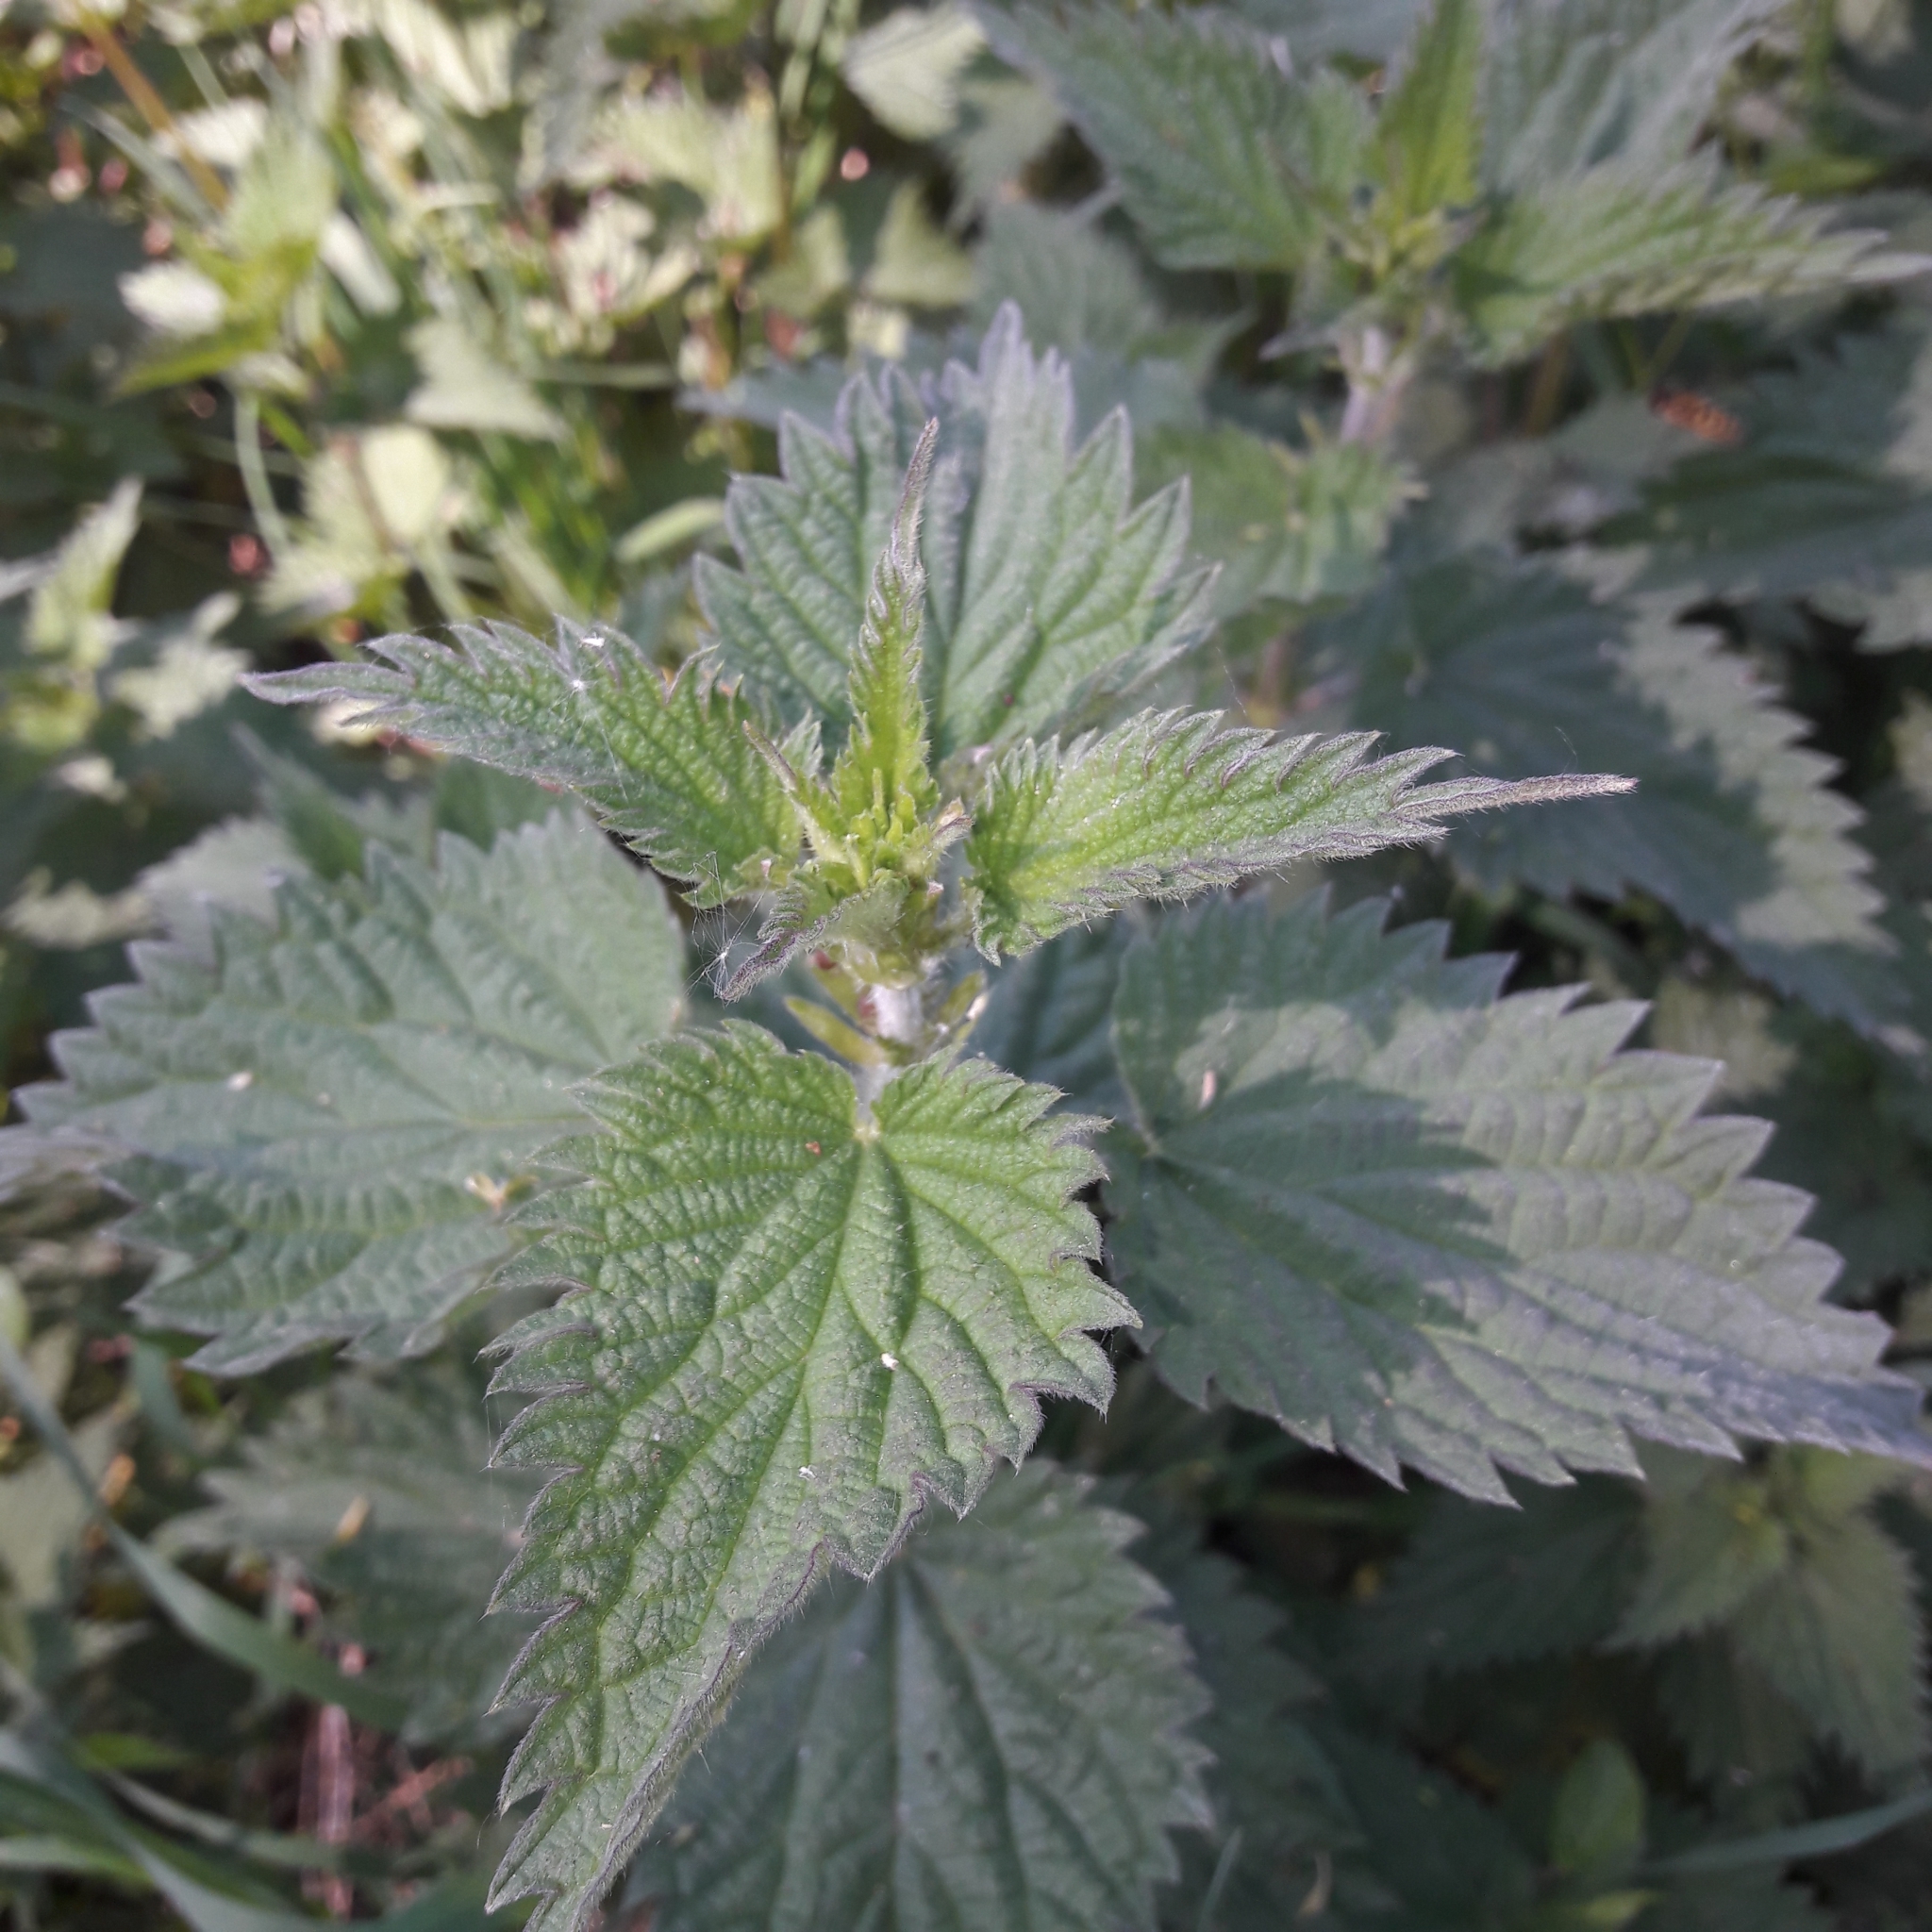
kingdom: Plantae
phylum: Tracheophyta
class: Magnoliopsida
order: Rosales
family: Urticaceae
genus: Urtica
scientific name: Urtica dioica
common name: Common nettle
